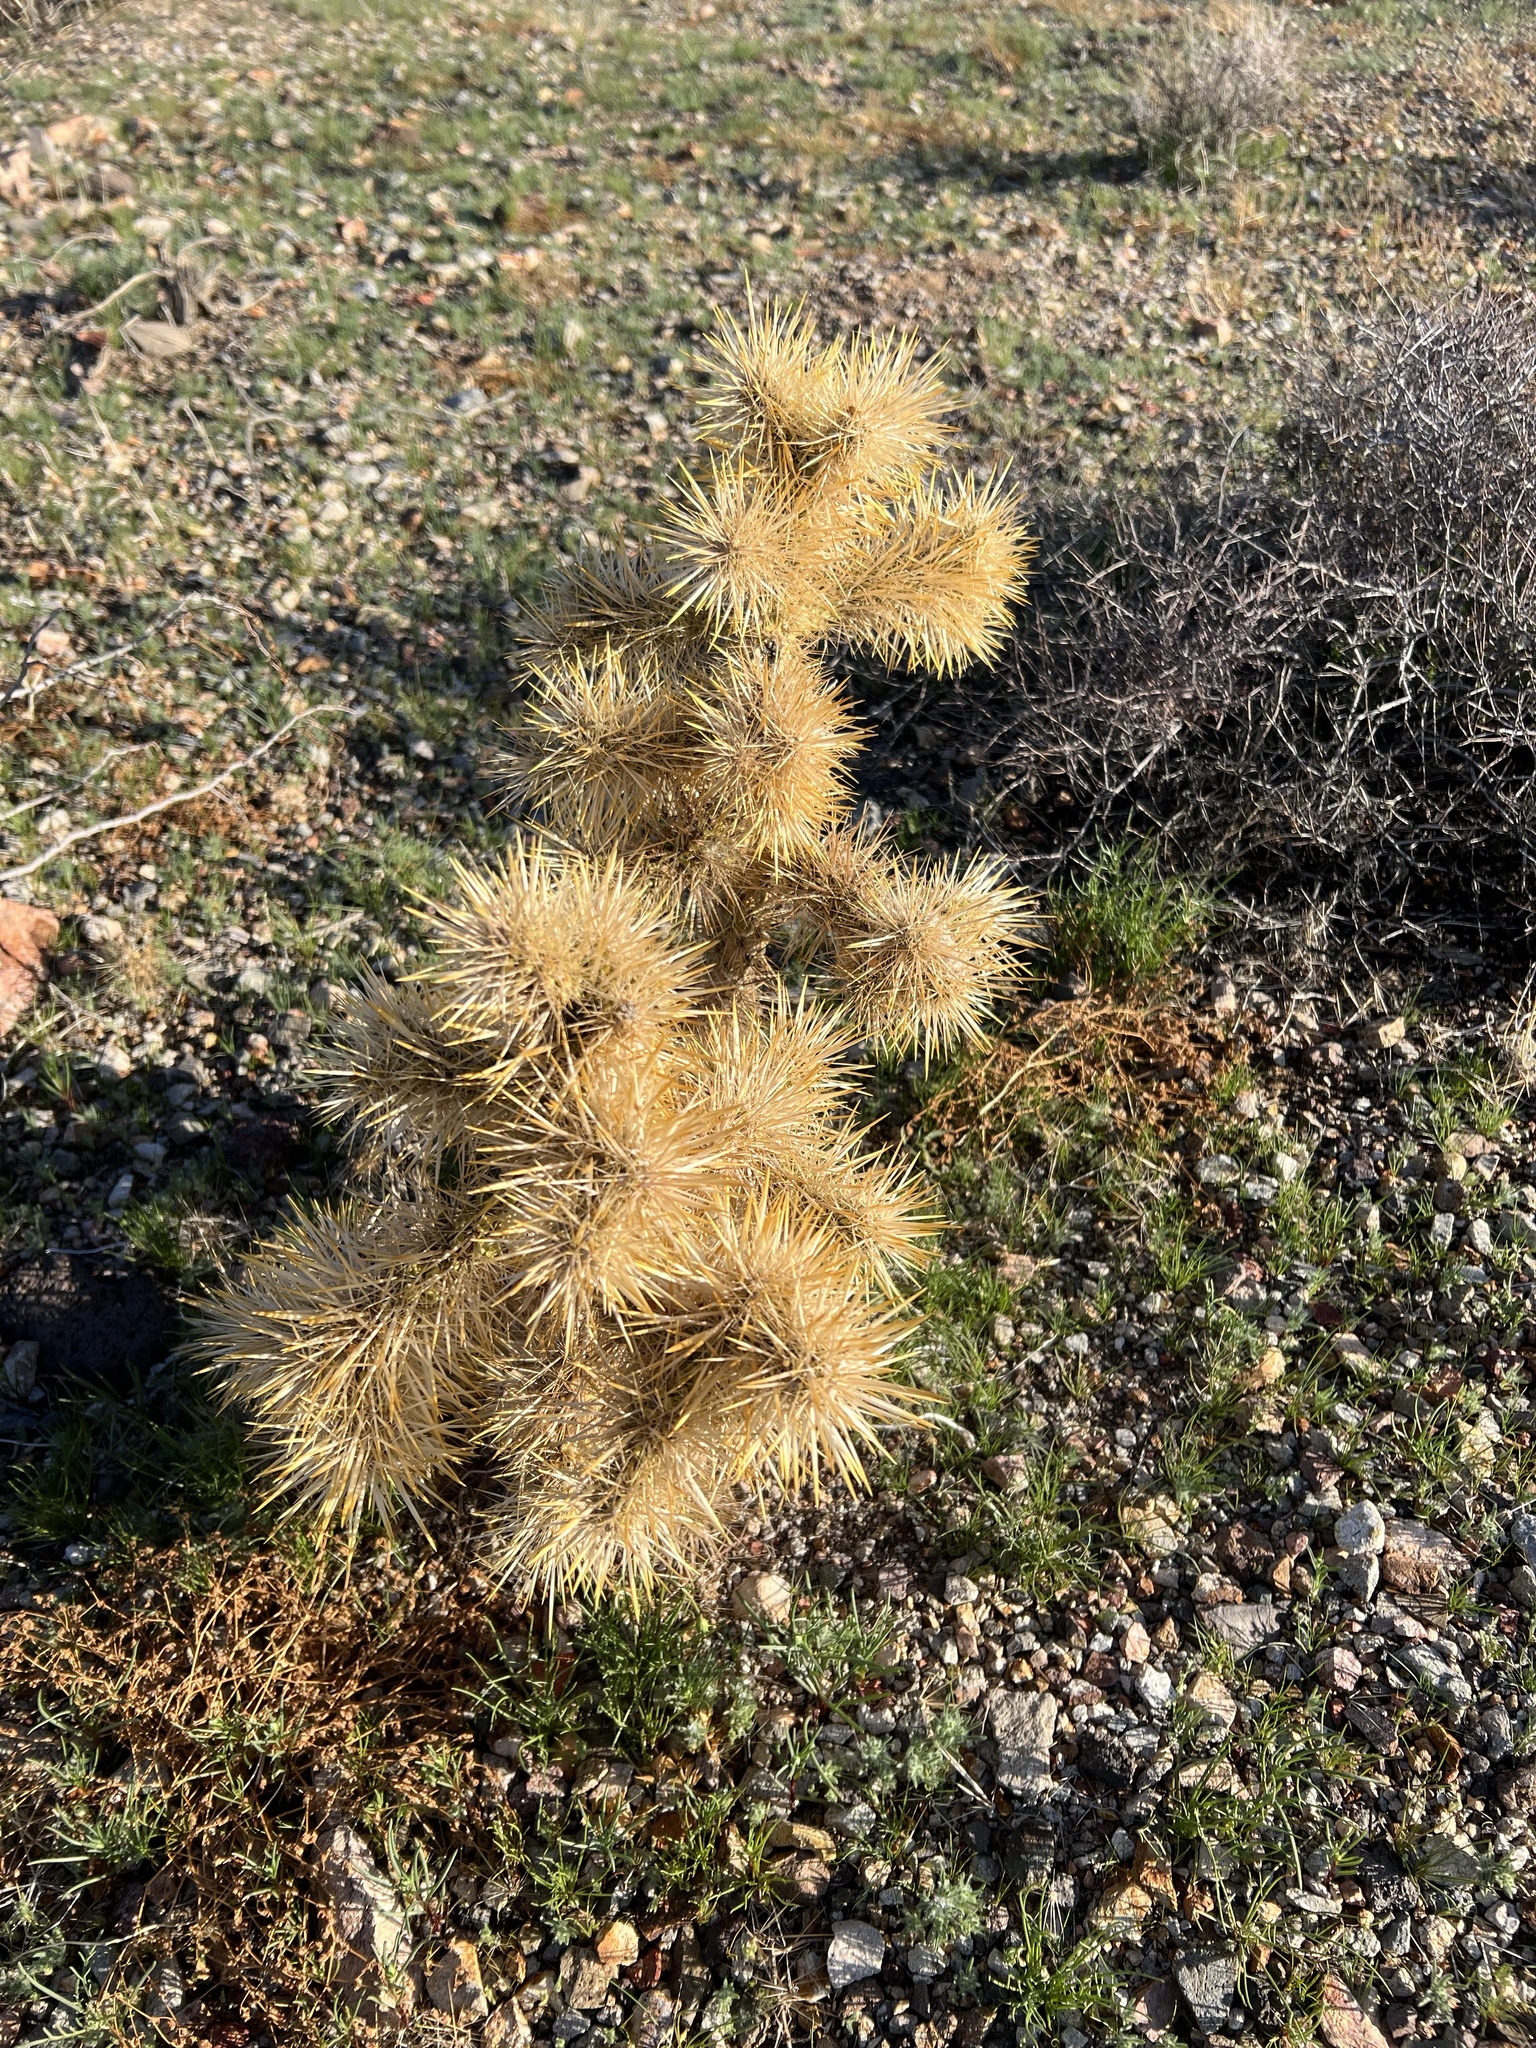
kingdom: Plantae
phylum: Tracheophyta
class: Magnoliopsida
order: Caryophyllales
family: Cactaceae
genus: Cylindropuntia
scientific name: Cylindropuntia echinocarpa
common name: Ground cholla
